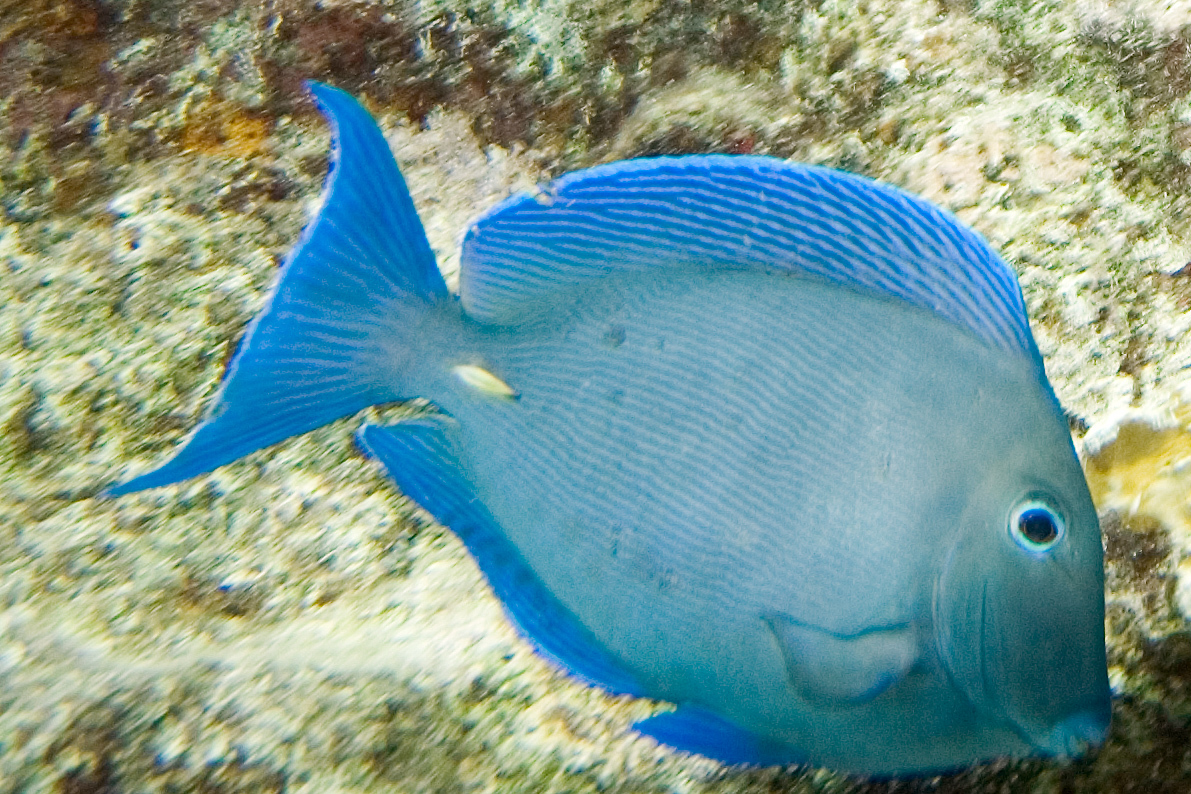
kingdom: Animalia
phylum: Chordata
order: Perciformes
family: Acanthuridae
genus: Acanthurus
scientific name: Acanthurus coeruleus
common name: Blue tang
